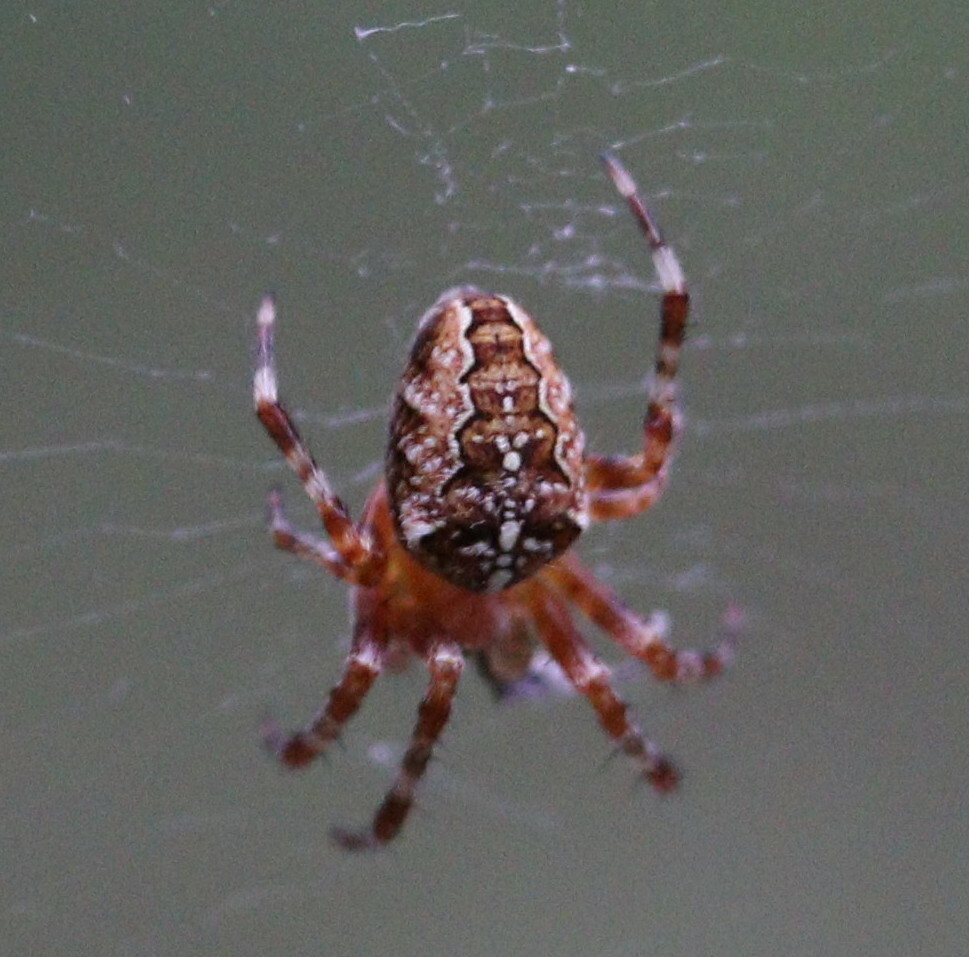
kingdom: Animalia
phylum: Arthropoda
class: Arachnida
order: Araneae
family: Araneidae
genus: Araneus
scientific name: Araneus diadematus
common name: Cross orbweaver
